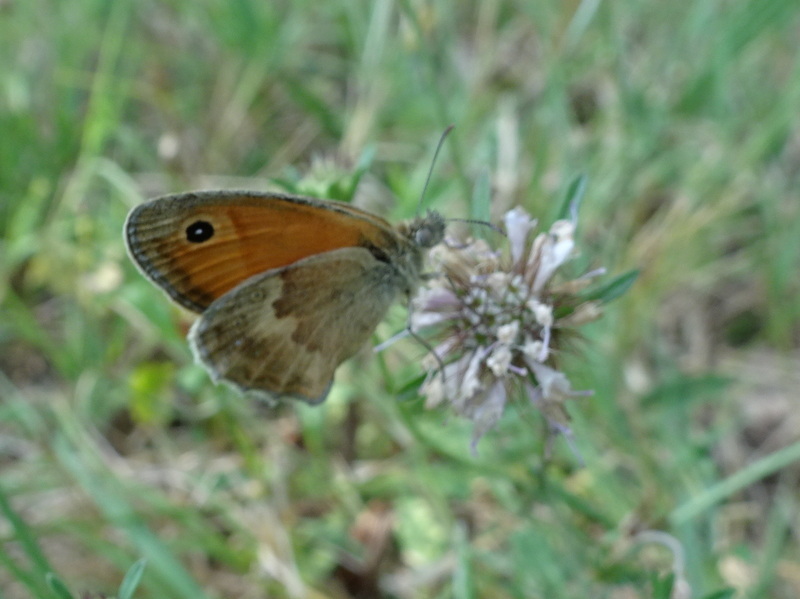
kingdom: Animalia
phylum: Arthropoda
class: Insecta
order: Lepidoptera
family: Nymphalidae
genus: Coenonympha
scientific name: Coenonympha pamphilus
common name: Small heath
